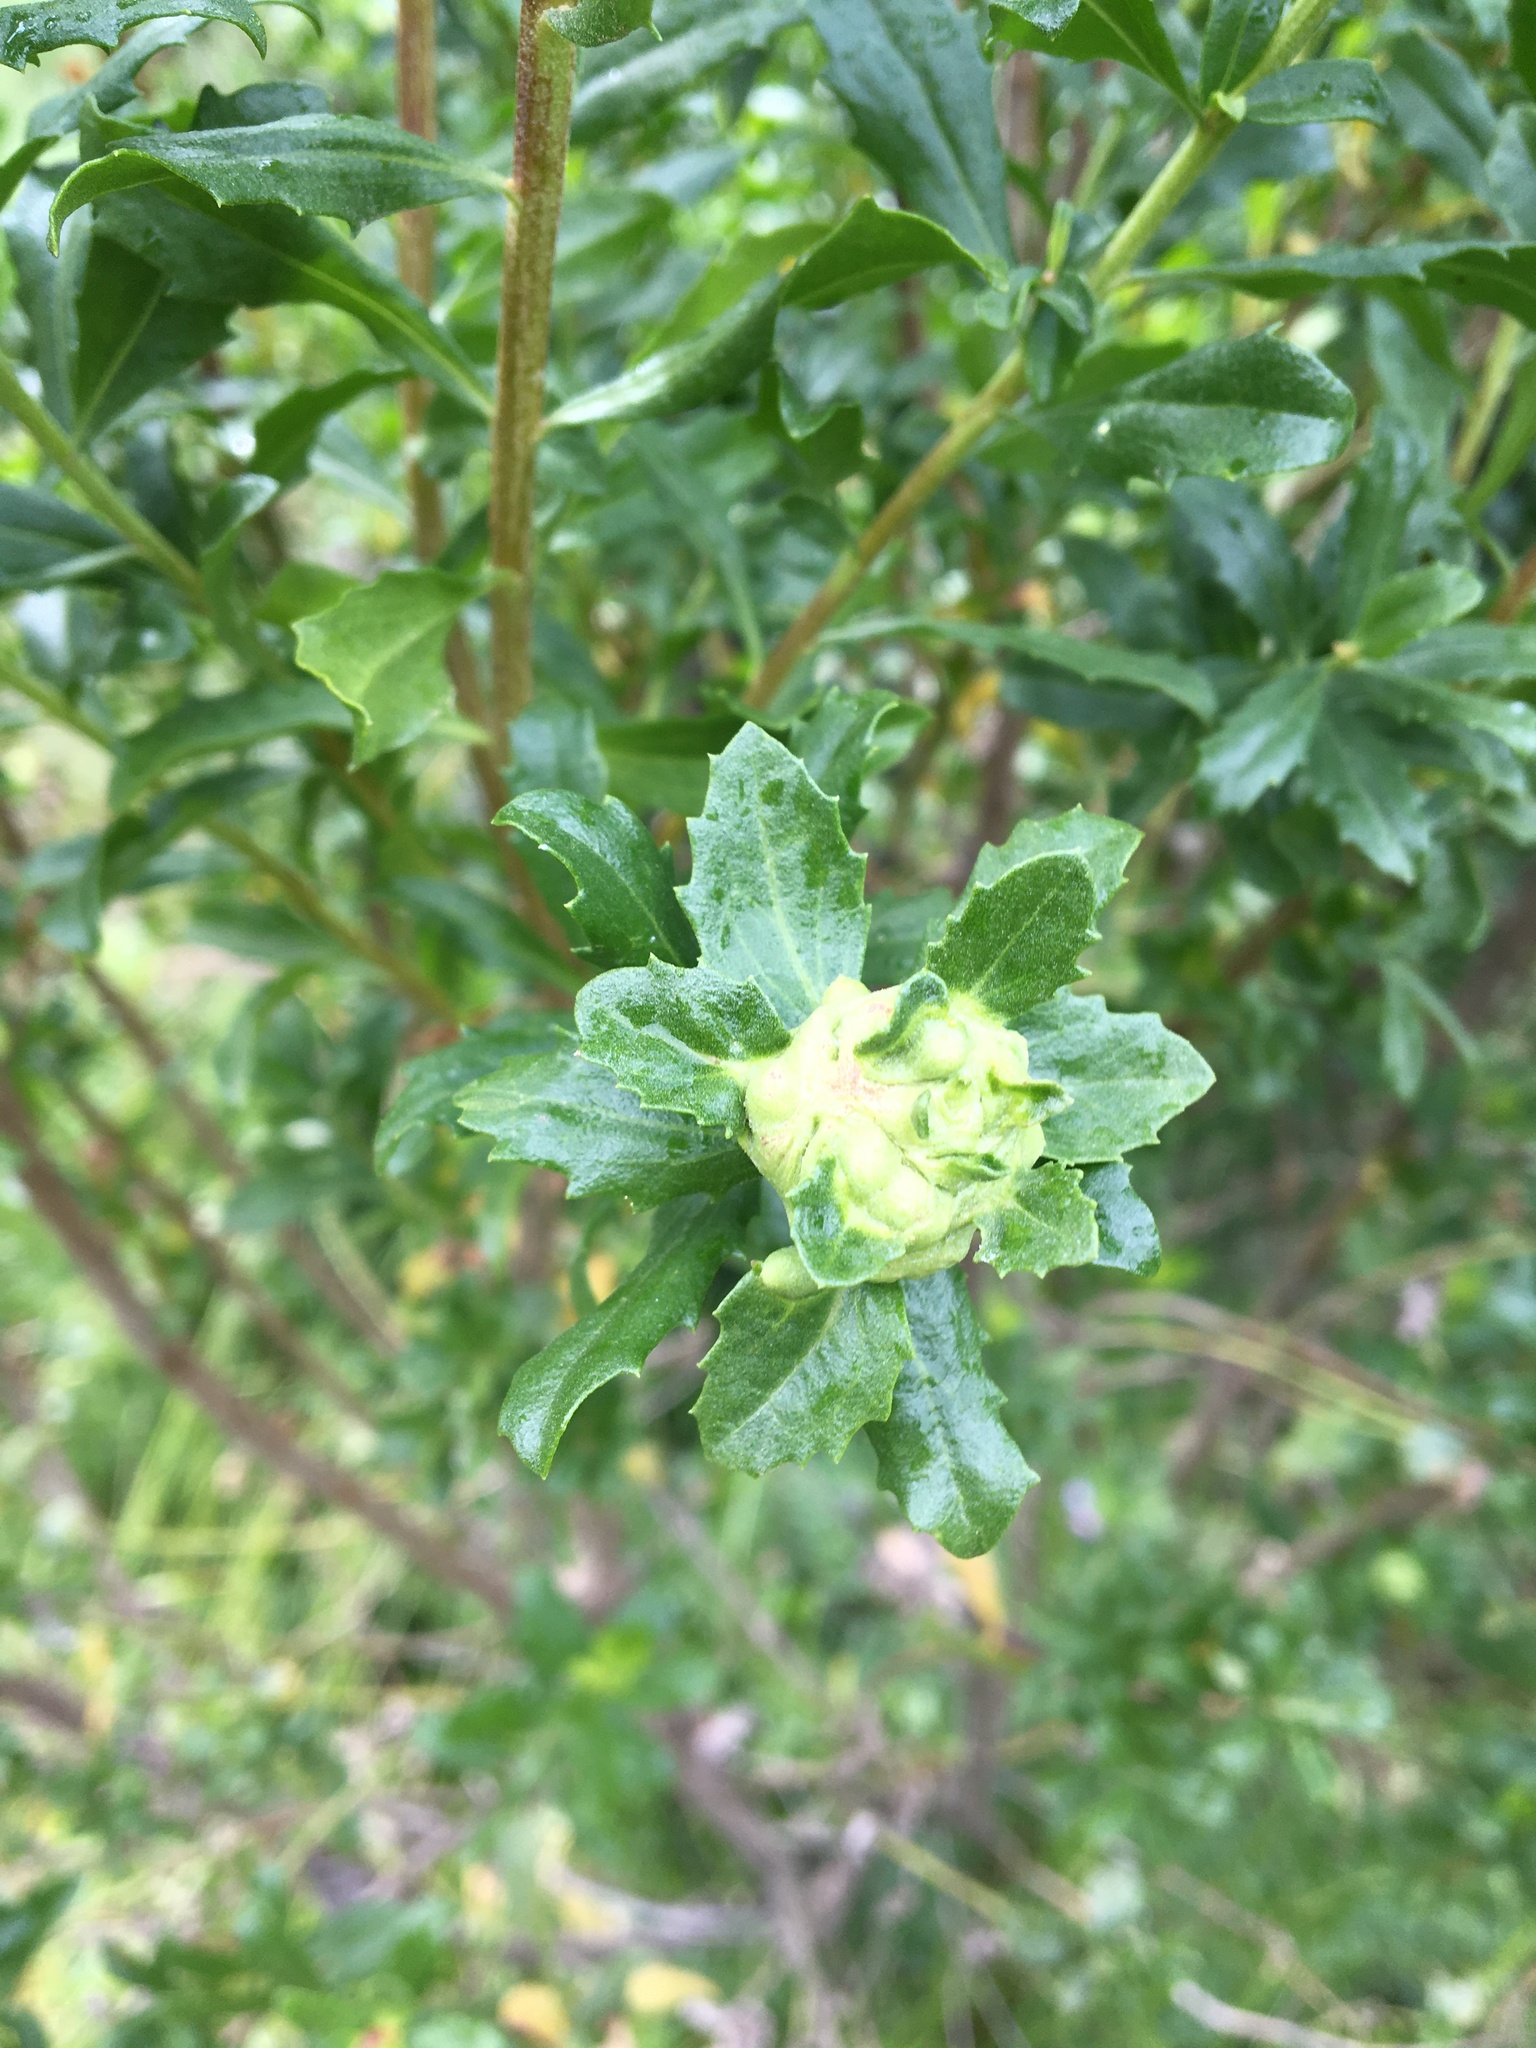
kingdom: Plantae
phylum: Tracheophyta
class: Magnoliopsida
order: Asterales
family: Asteraceae
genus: Baccharis
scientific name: Baccharis pilularis
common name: Coyotebrush
